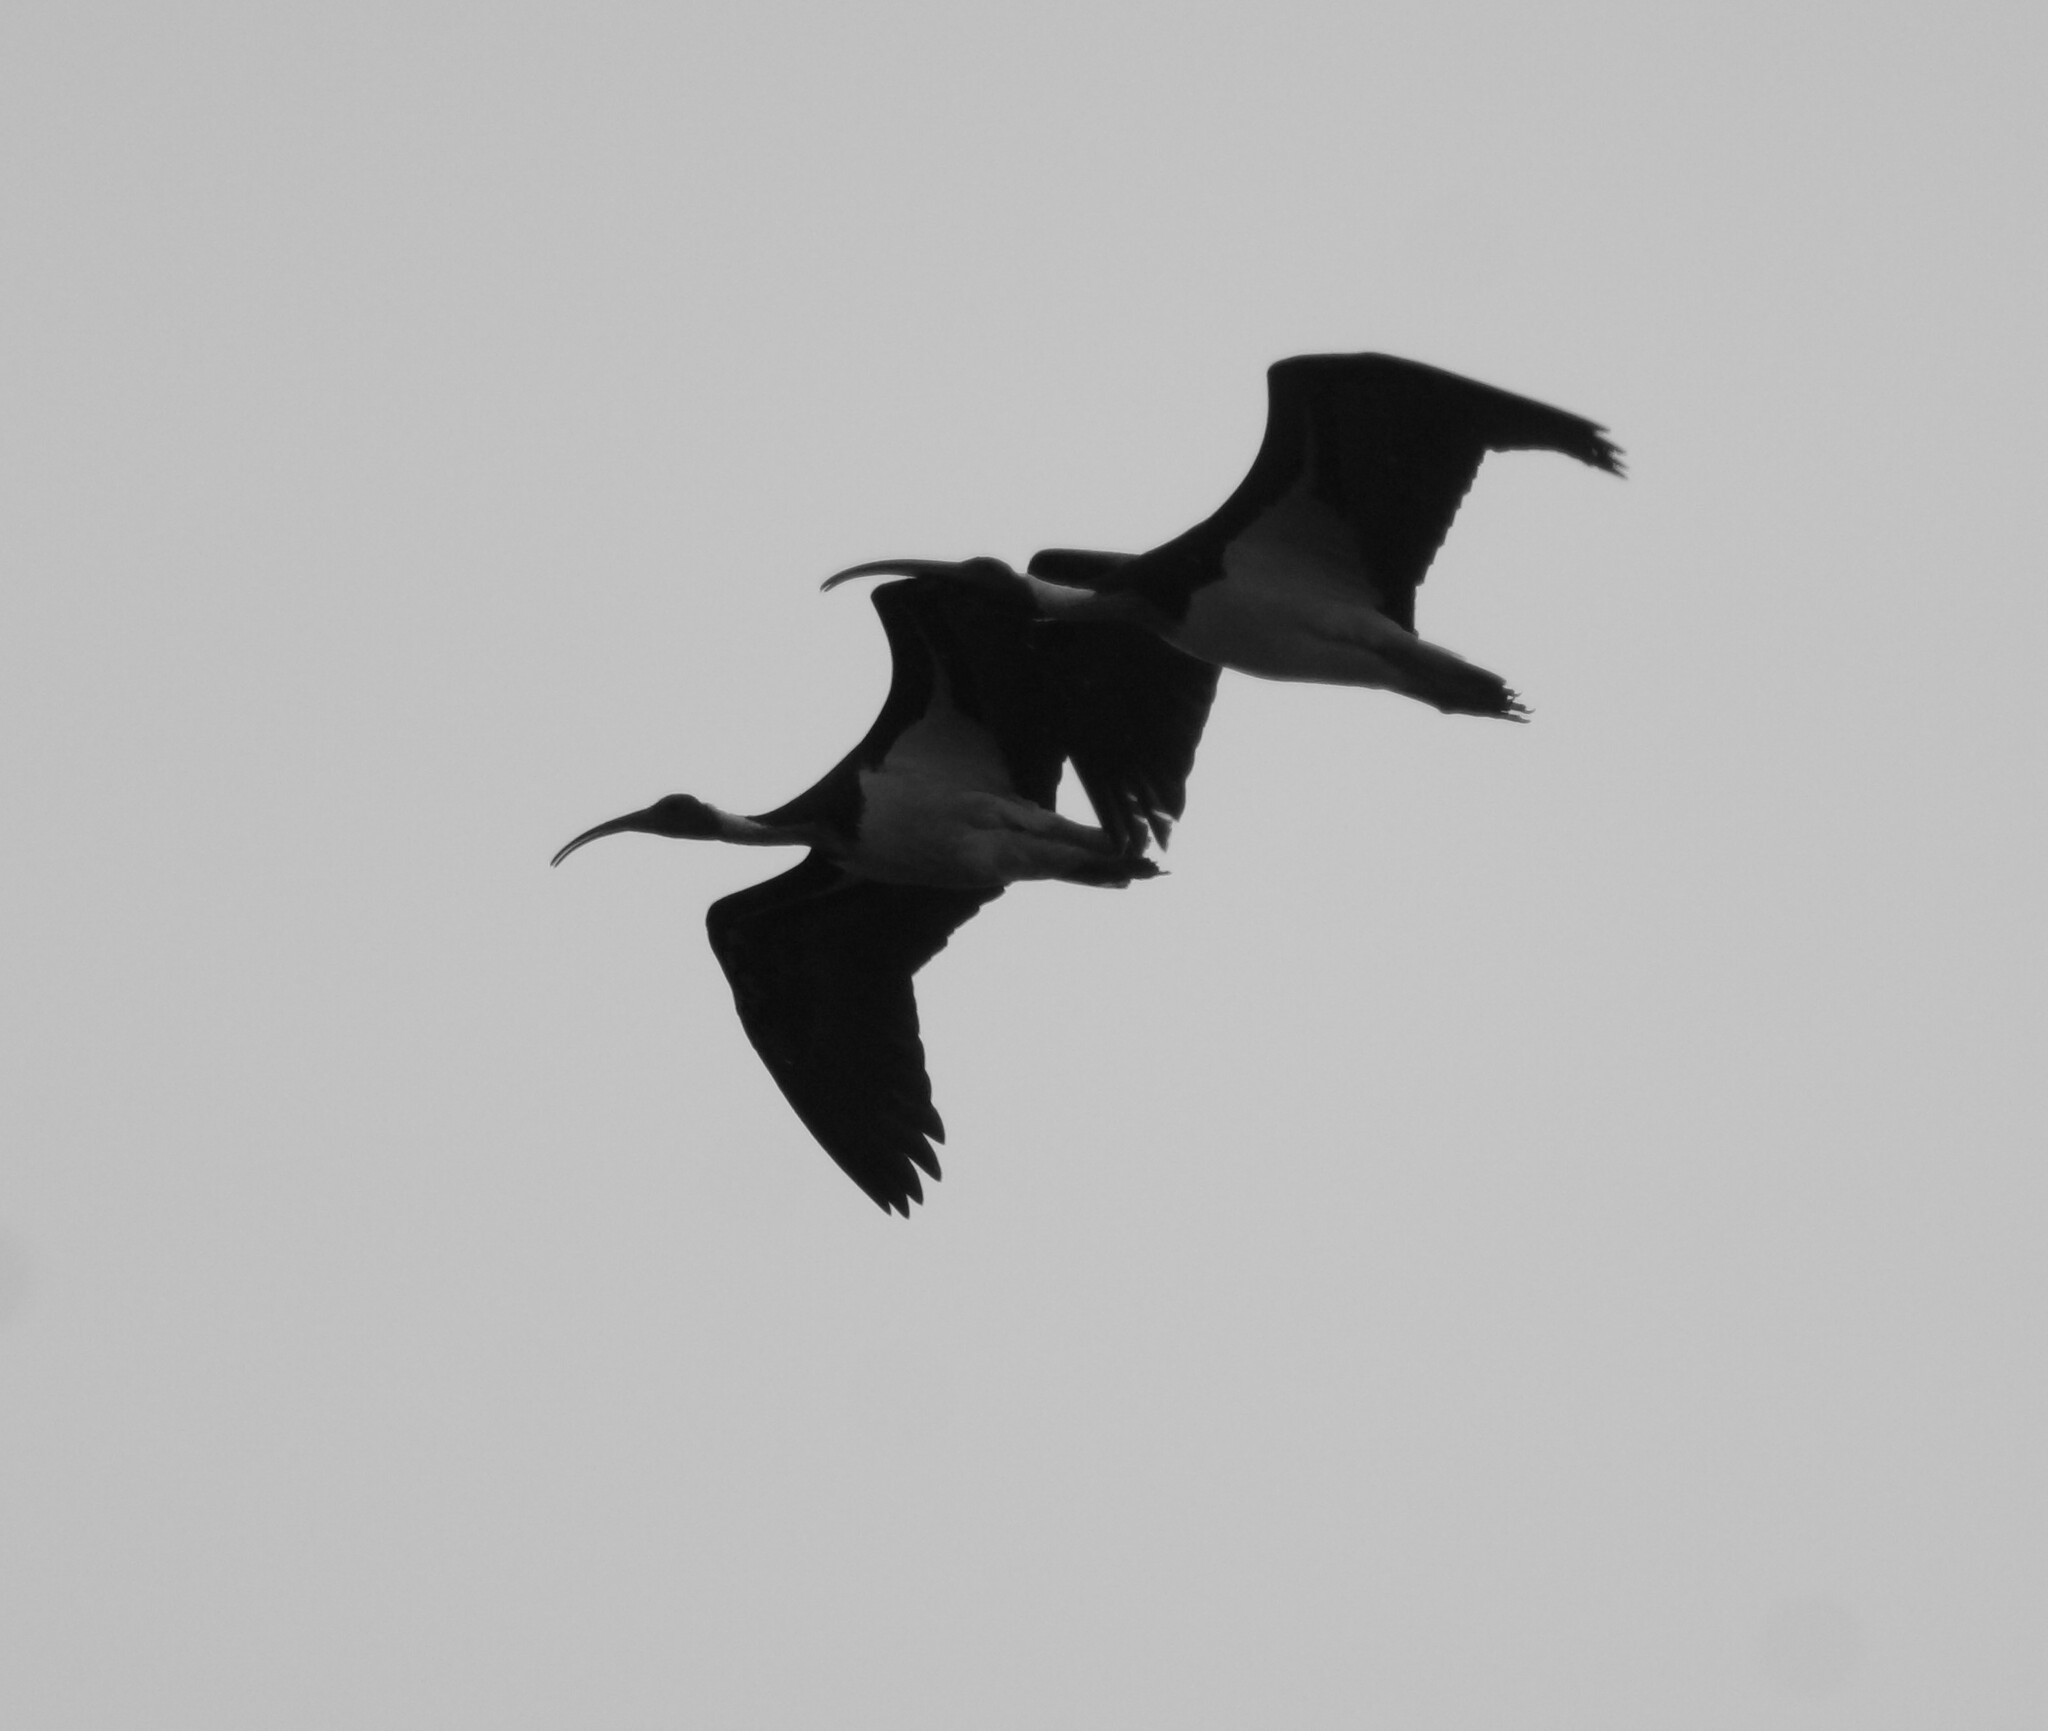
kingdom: Animalia
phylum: Chordata
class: Aves
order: Pelecaniformes
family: Threskiornithidae
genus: Threskiornis
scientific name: Threskiornis spinicollis
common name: Straw-necked ibis
